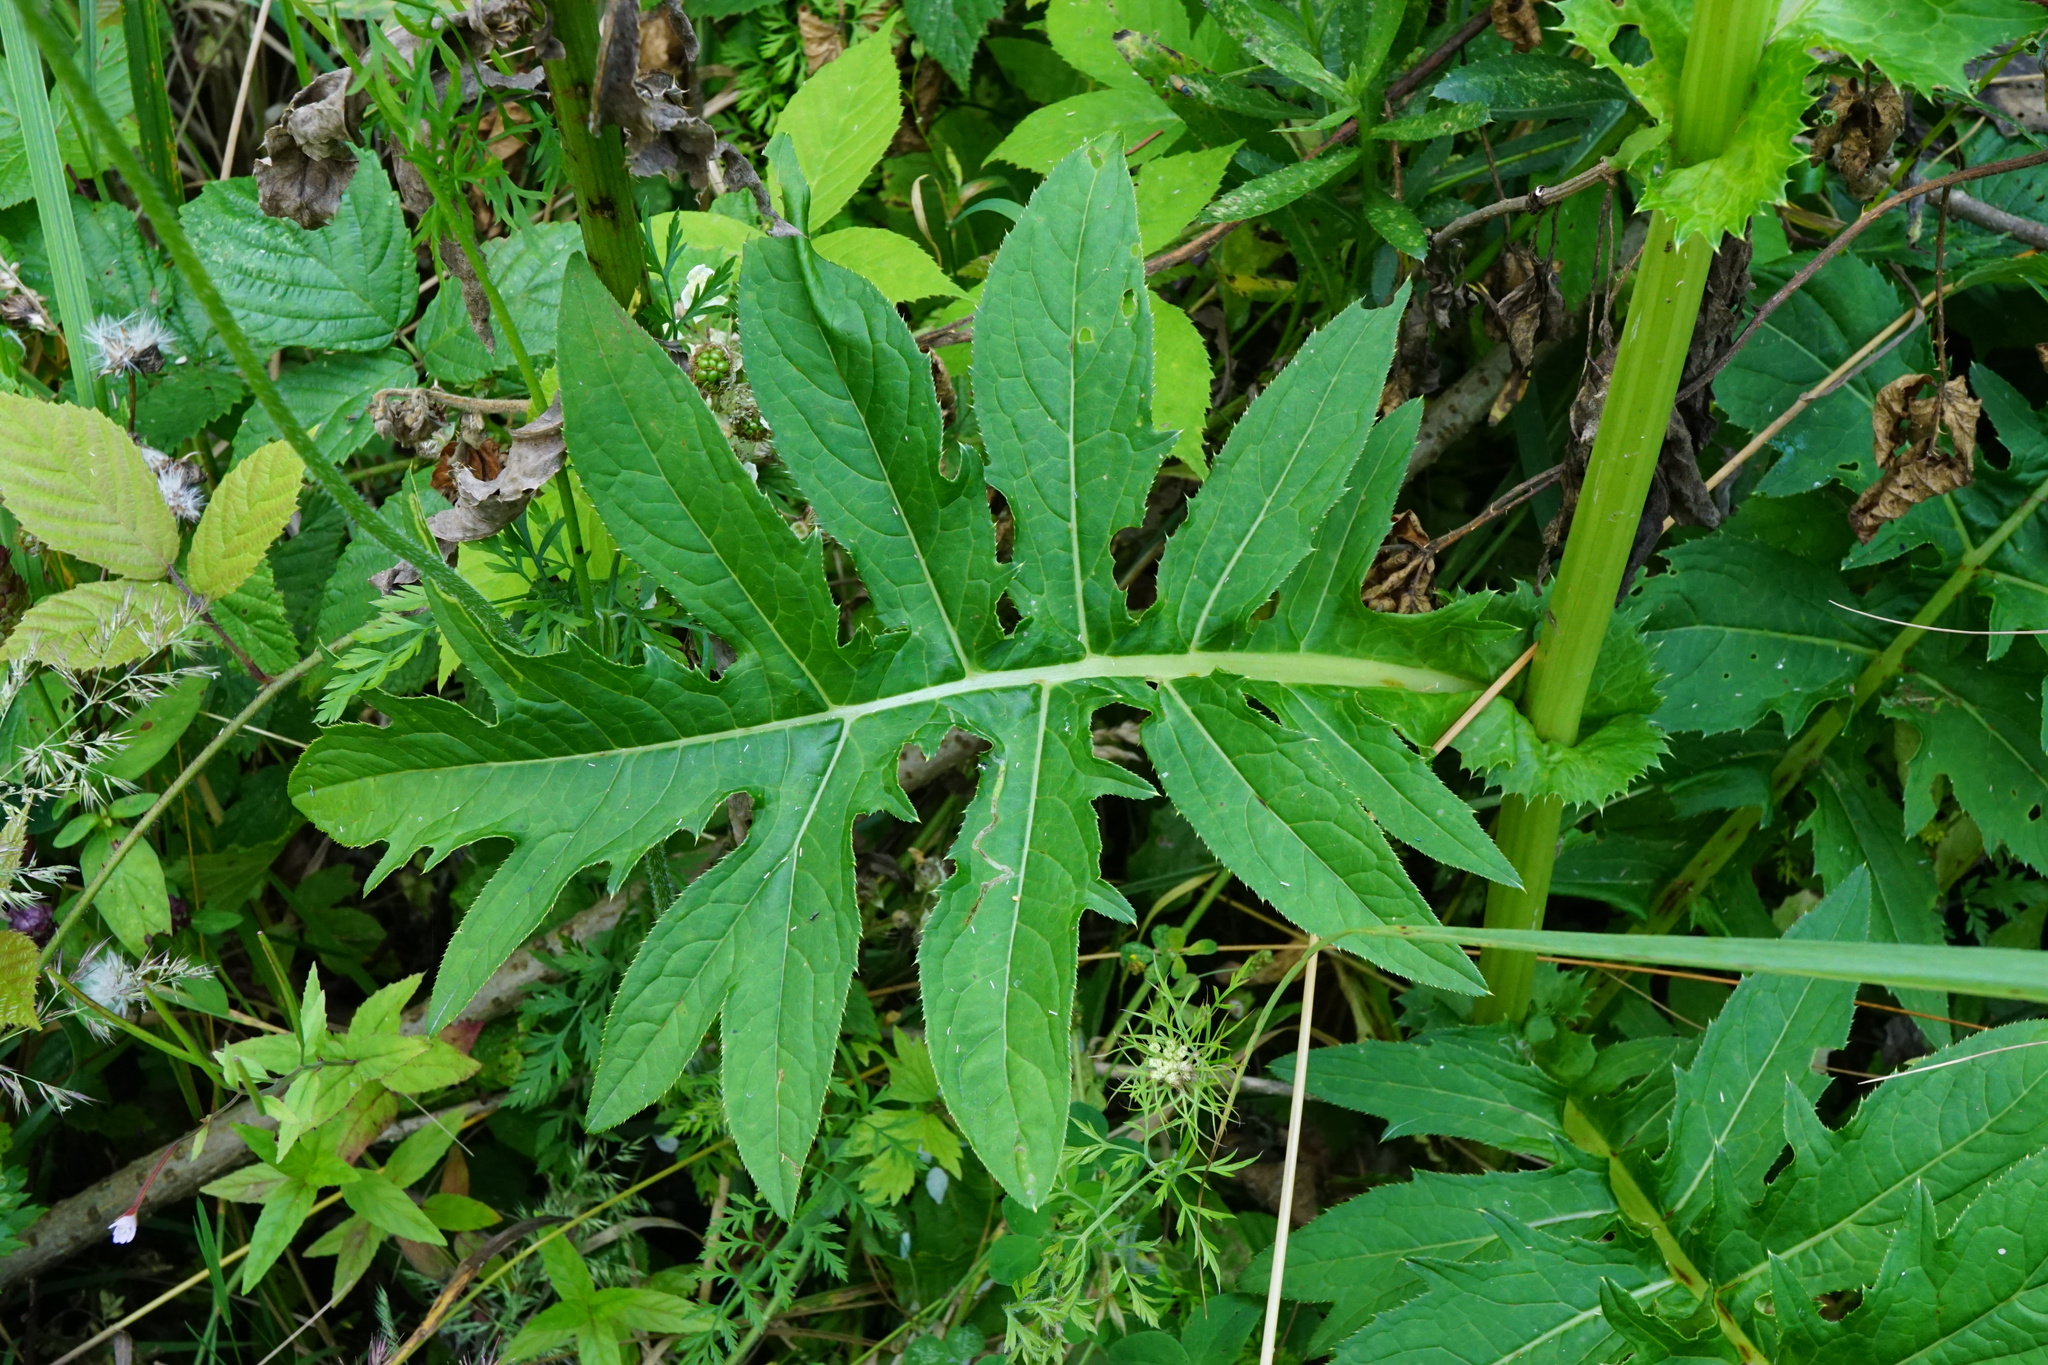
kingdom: Plantae
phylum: Tracheophyta
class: Magnoliopsida
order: Asterales
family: Asteraceae
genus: Cirsium
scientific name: Cirsium oleraceum
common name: Cabbage thistle
